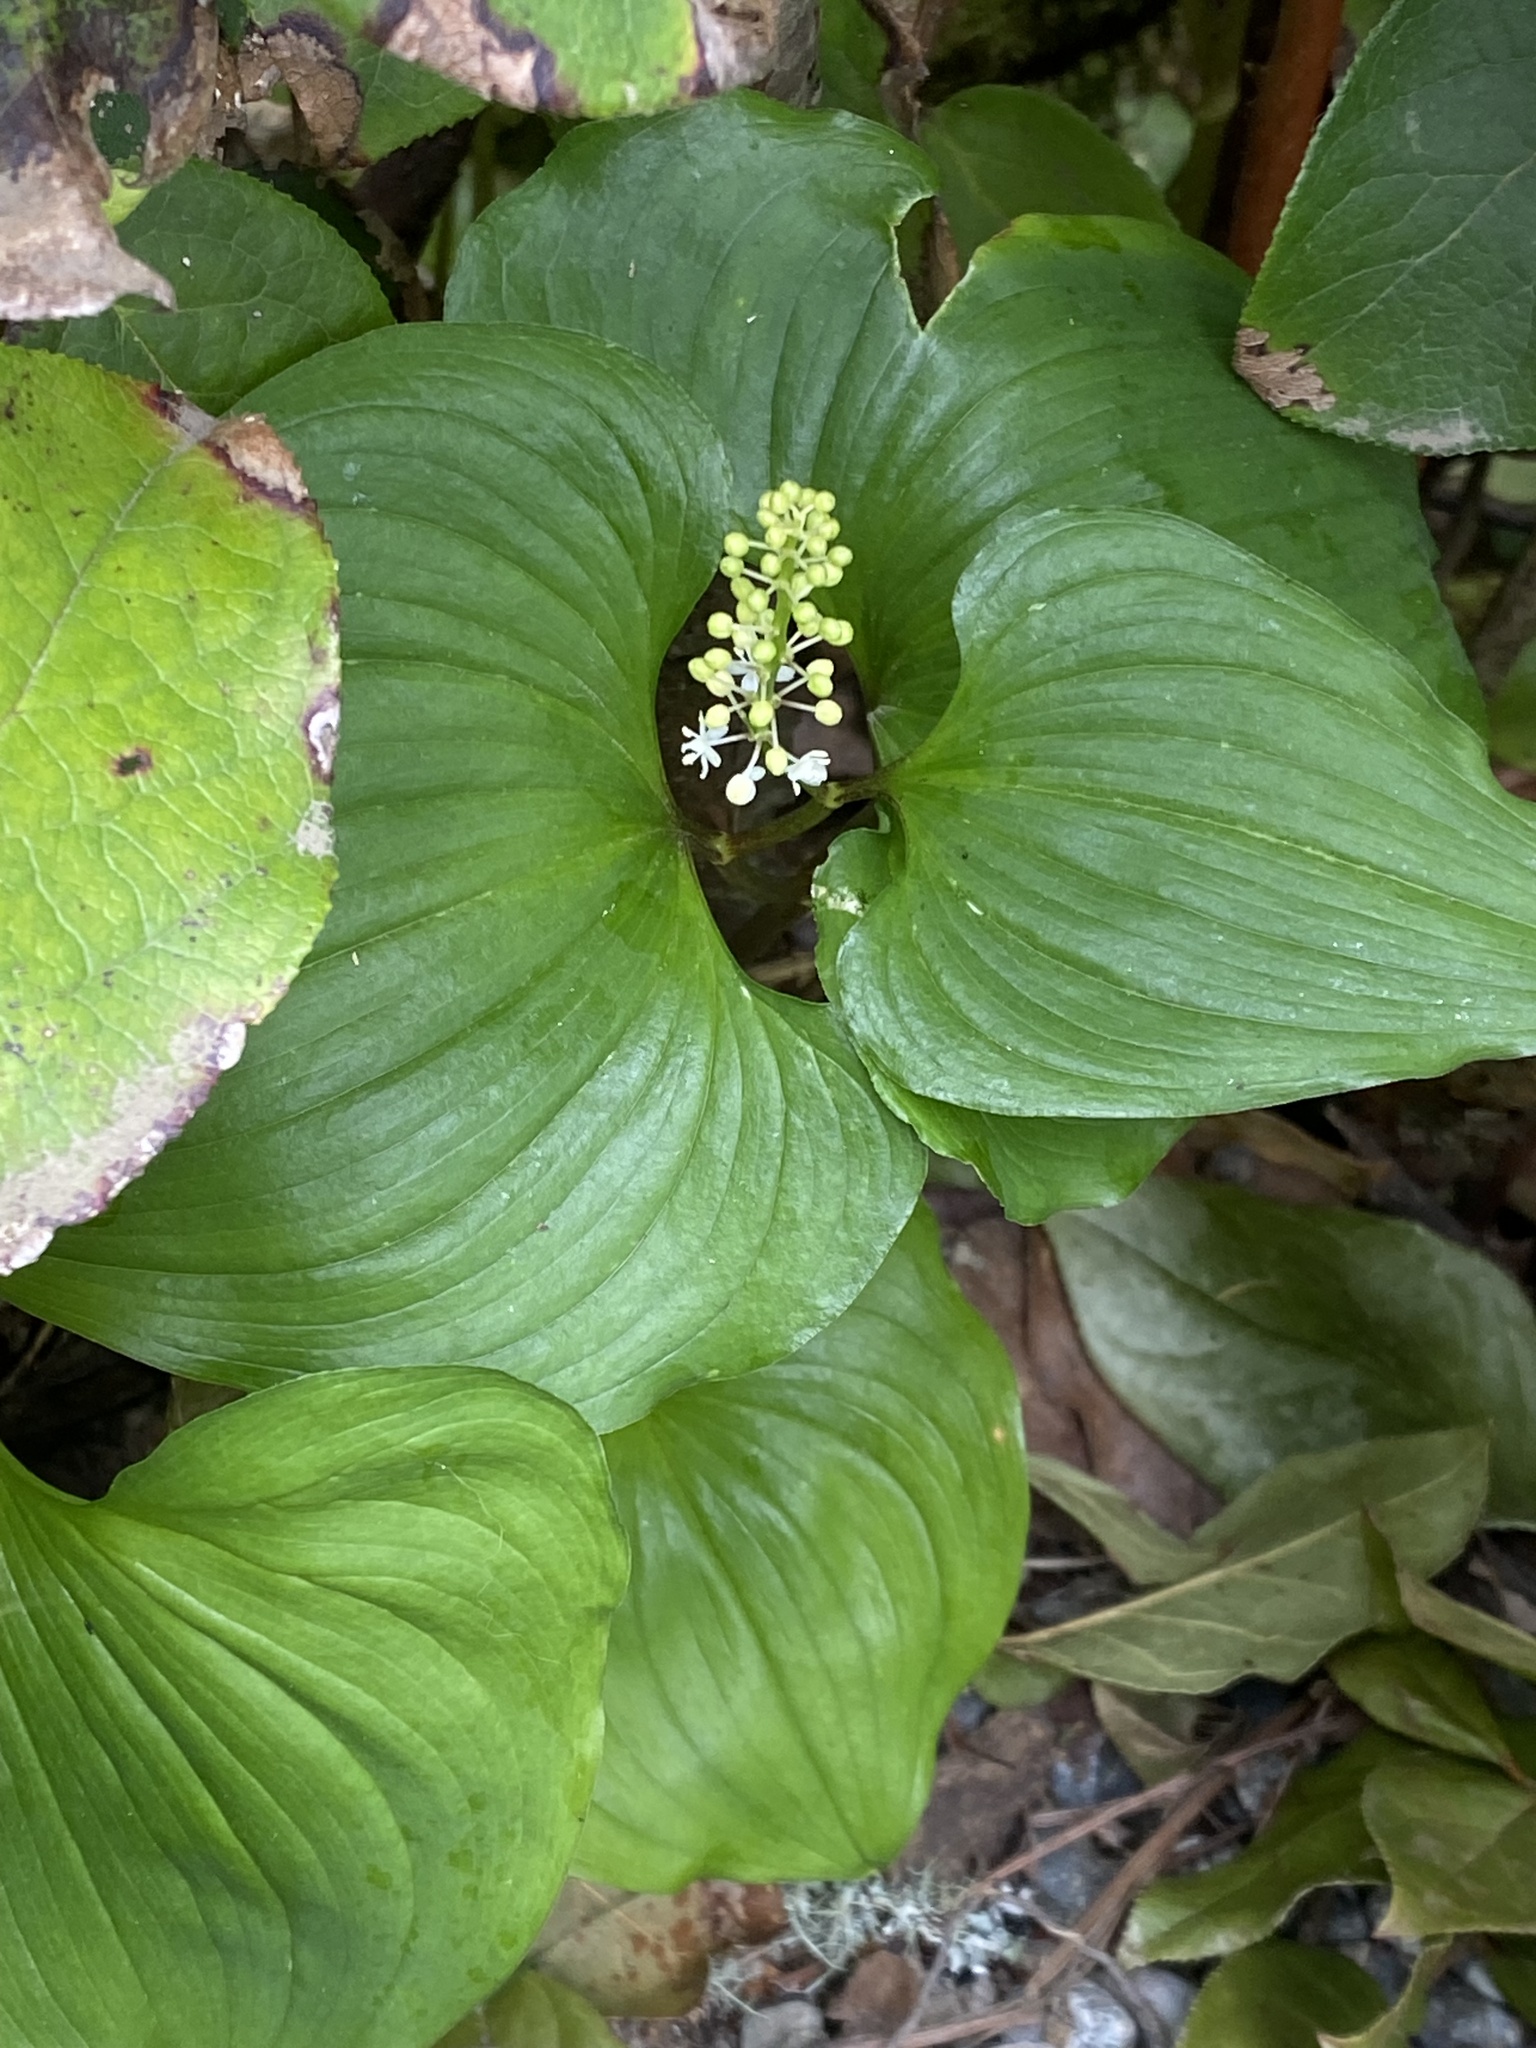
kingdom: Plantae
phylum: Tracheophyta
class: Liliopsida
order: Asparagales
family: Asparagaceae
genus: Maianthemum
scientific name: Maianthemum dilatatum
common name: False lily-of-the-valley
